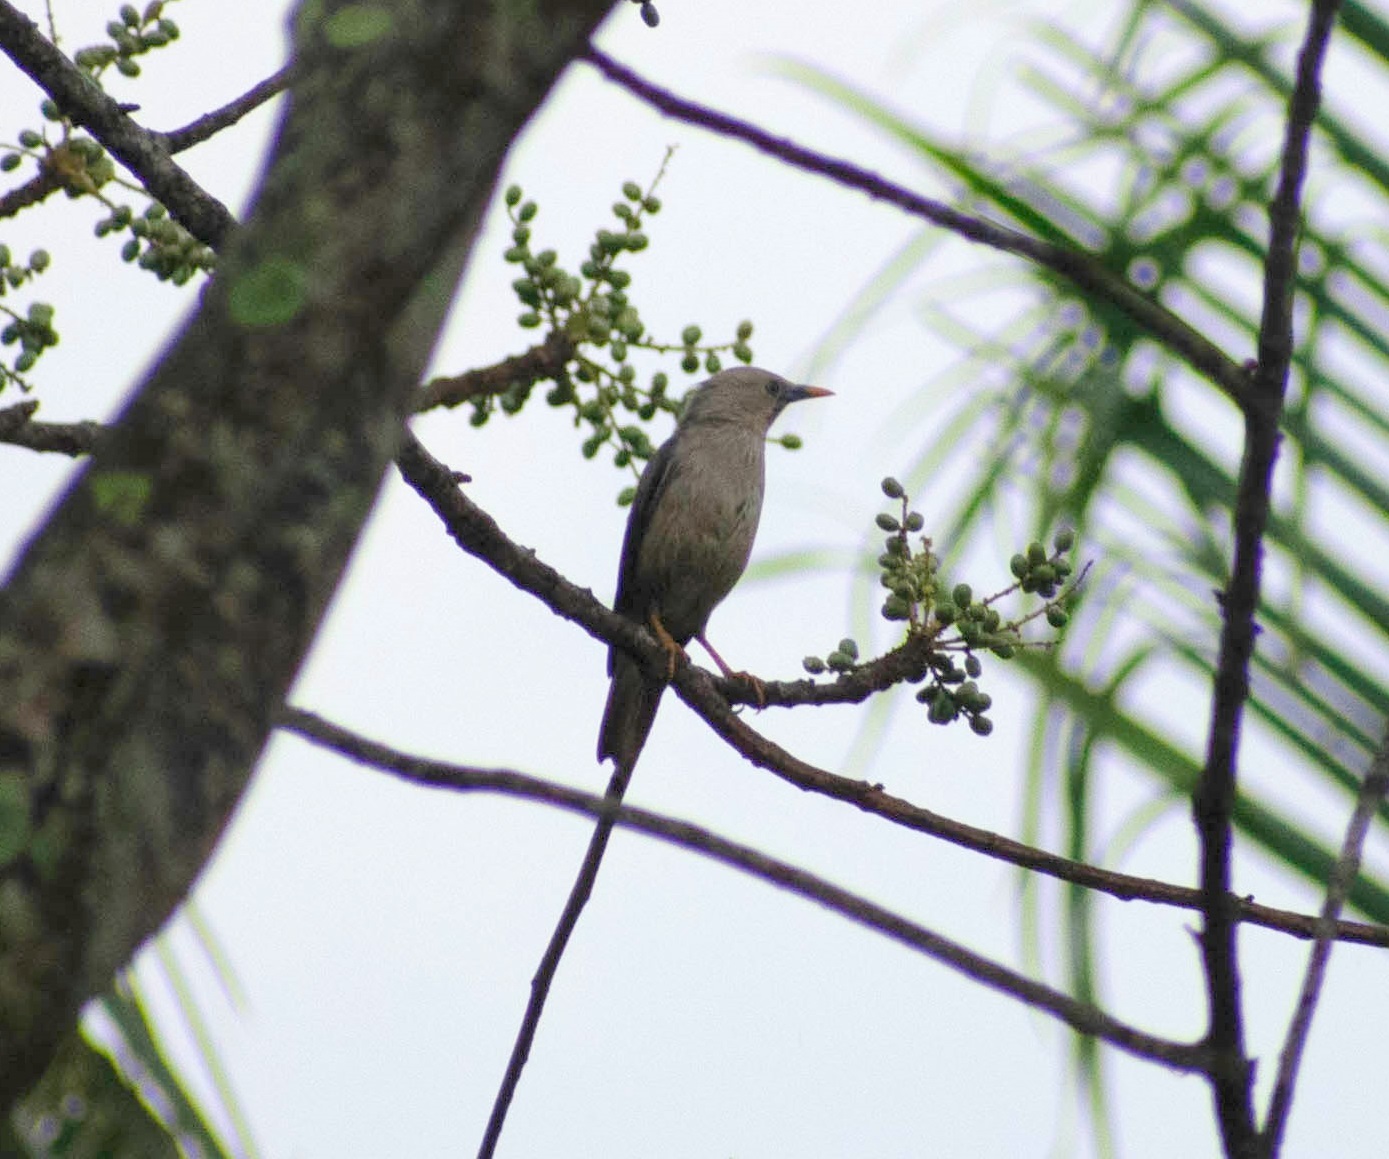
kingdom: Animalia
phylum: Chordata
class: Aves
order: Passeriformes
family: Sturnidae
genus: Sturnia
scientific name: Sturnia blythii
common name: Malabar starling
